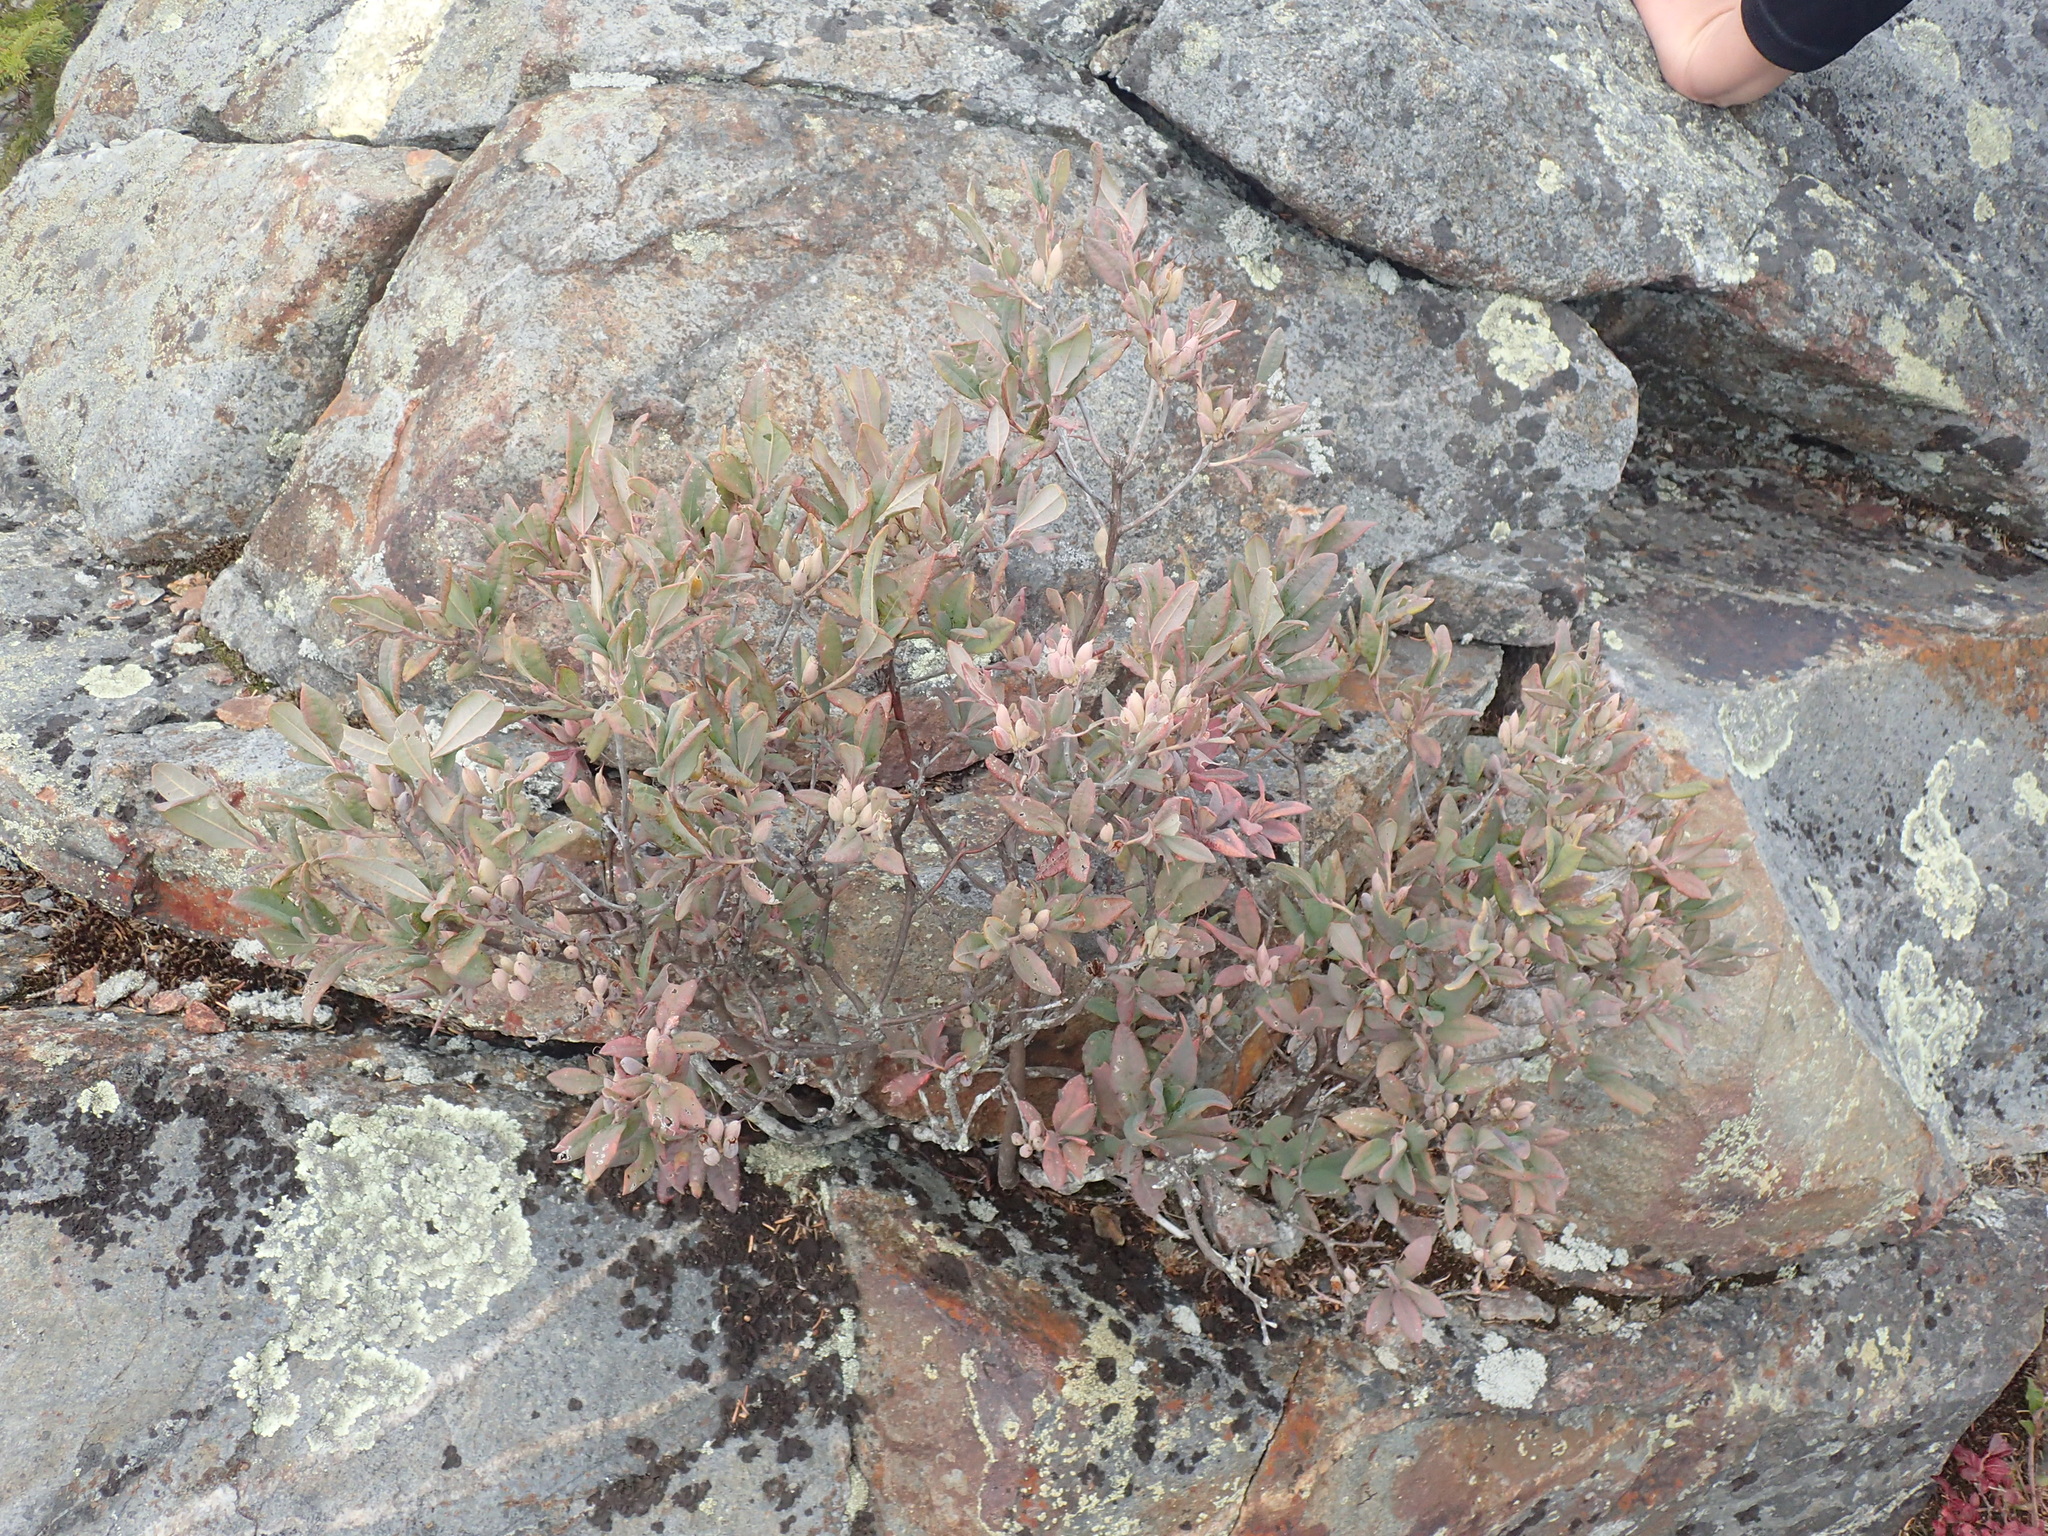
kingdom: Plantae
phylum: Tracheophyta
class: Magnoliopsida
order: Ericales
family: Ericaceae
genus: Rhododendron
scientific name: Rhododendron canadense
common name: Rhodora
